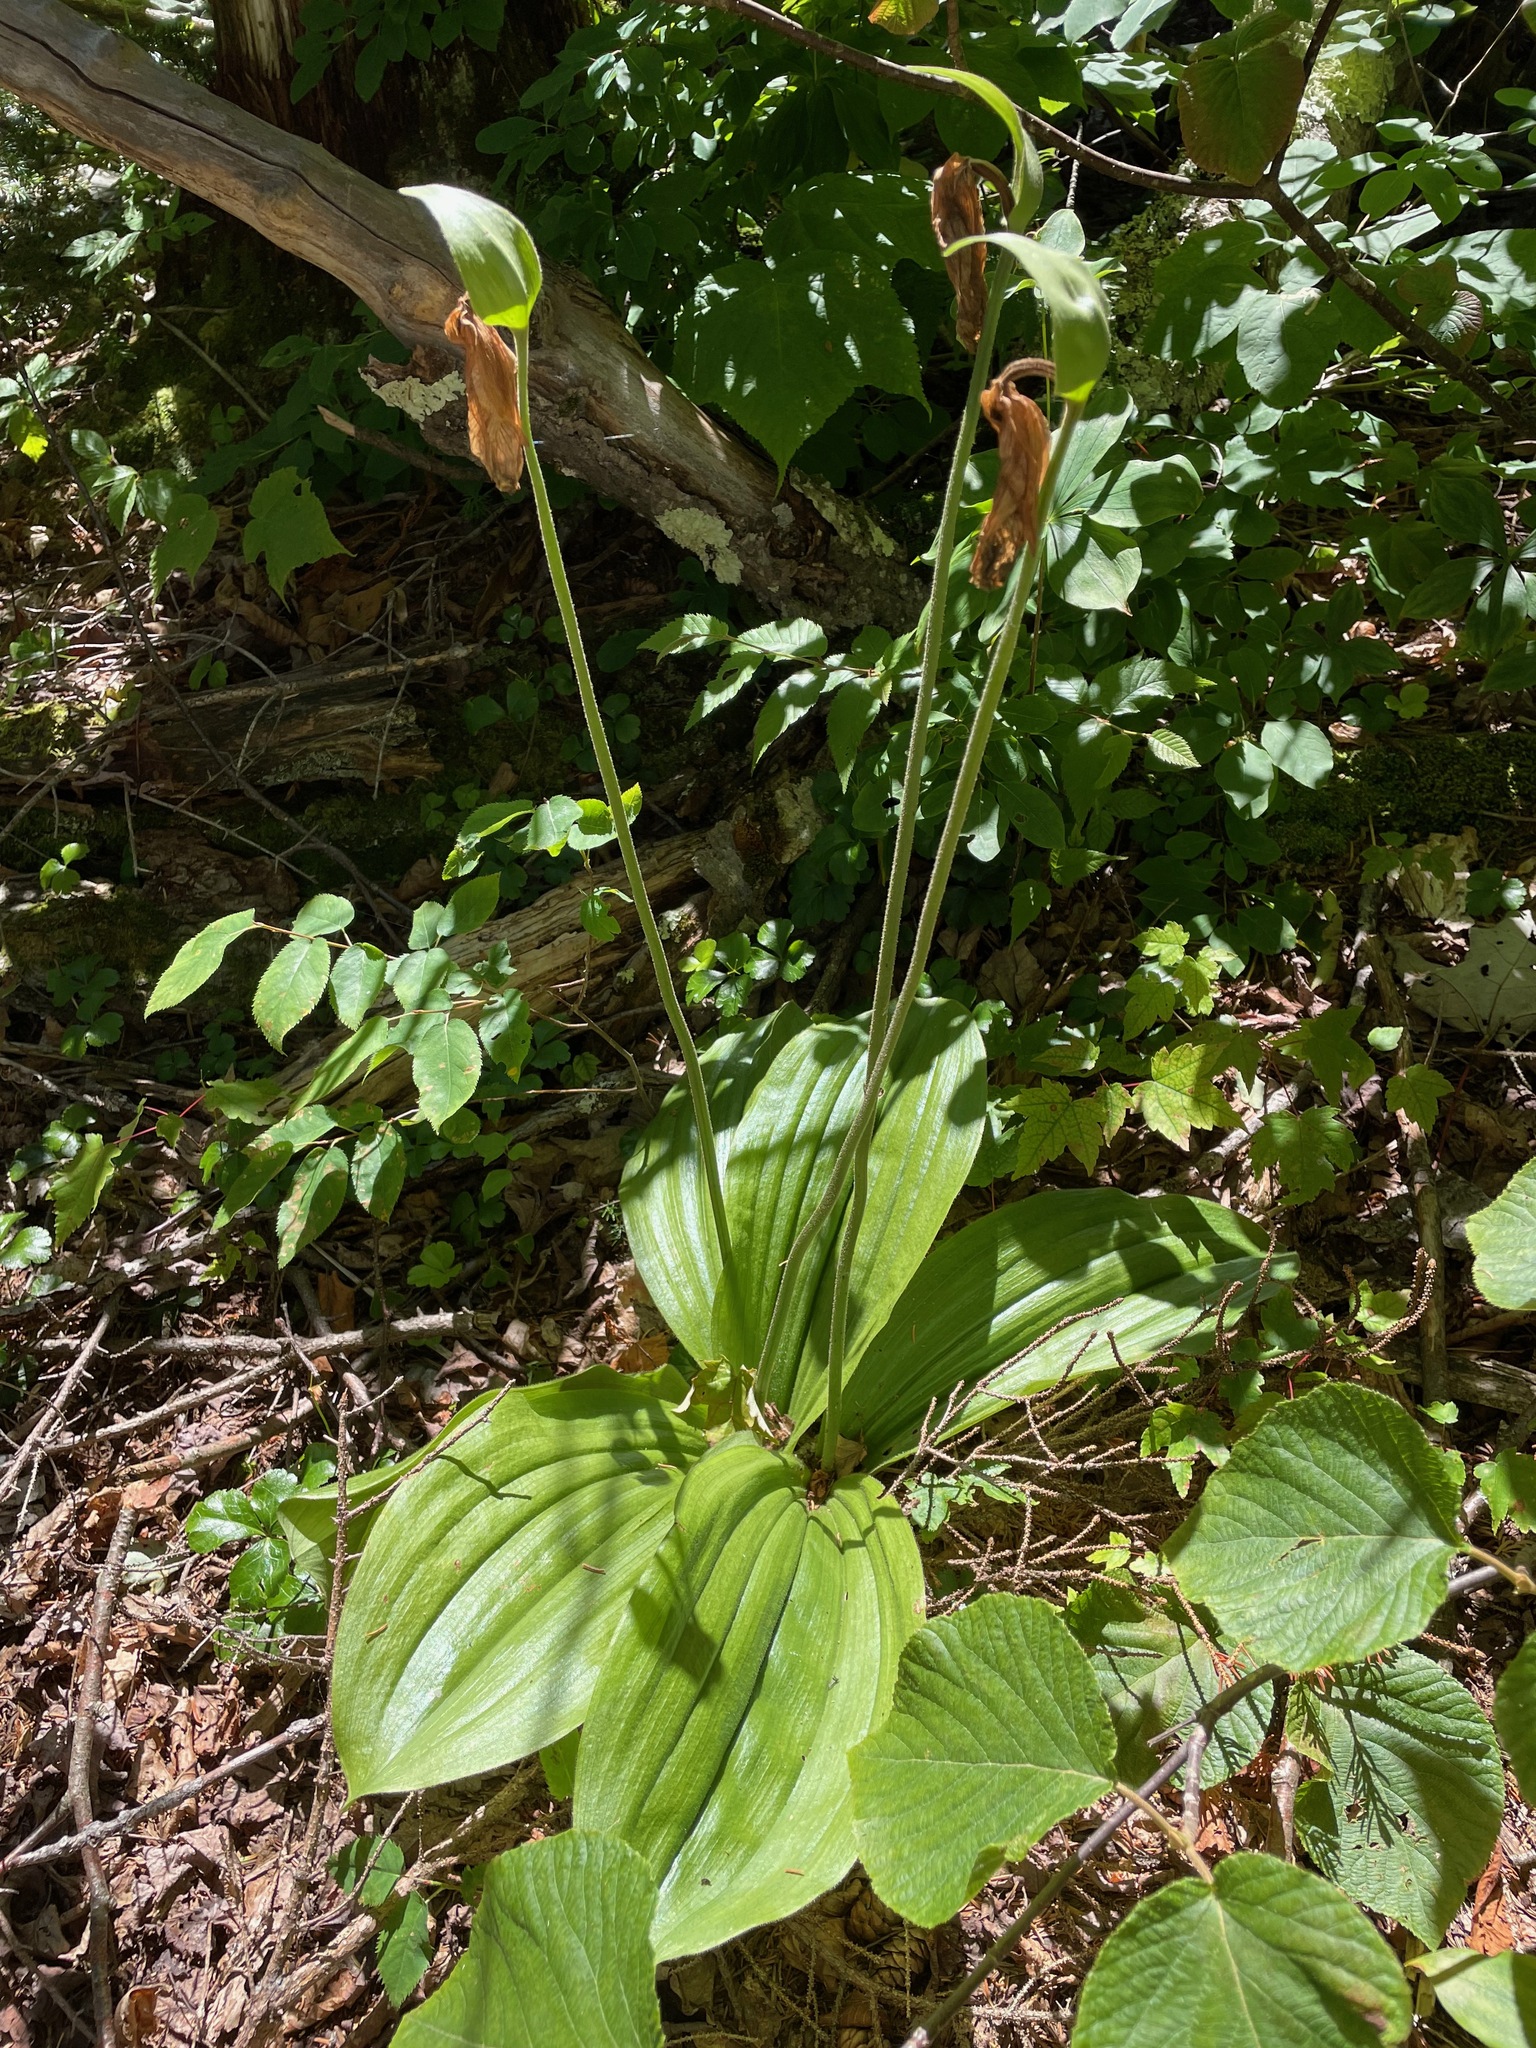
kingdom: Plantae
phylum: Tracheophyta
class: Liliopsida
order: Asparagales
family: Orchidaceae
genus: Cypripedium
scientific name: Cypripedium acaule
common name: Pink lady's-slipper
